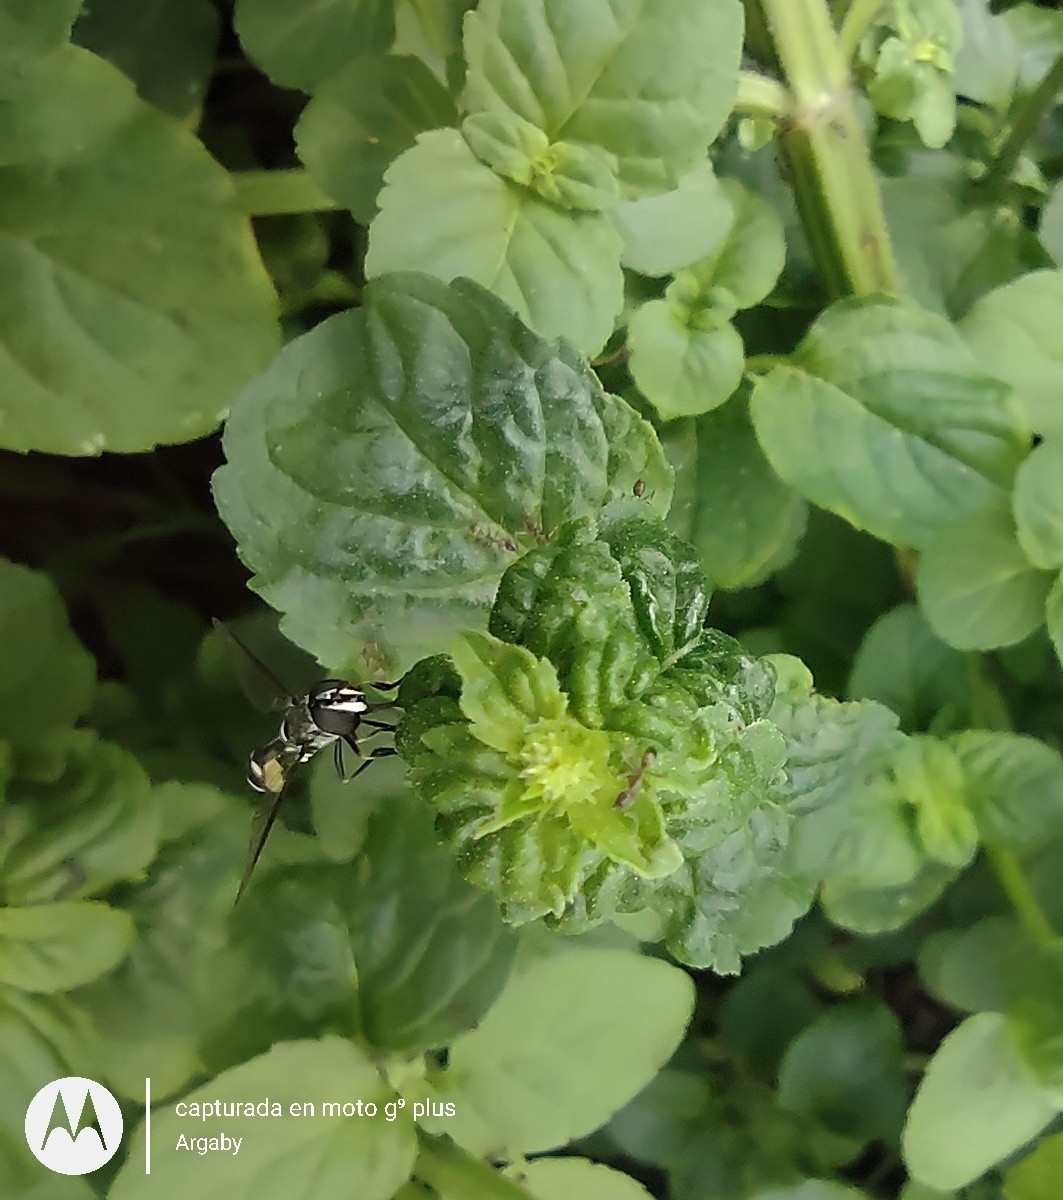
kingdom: Animalia
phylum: Arthropoda
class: Insecta
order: Diptera
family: Syrphidae
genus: Dioprosopa
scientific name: Dioprosopa clavatus
